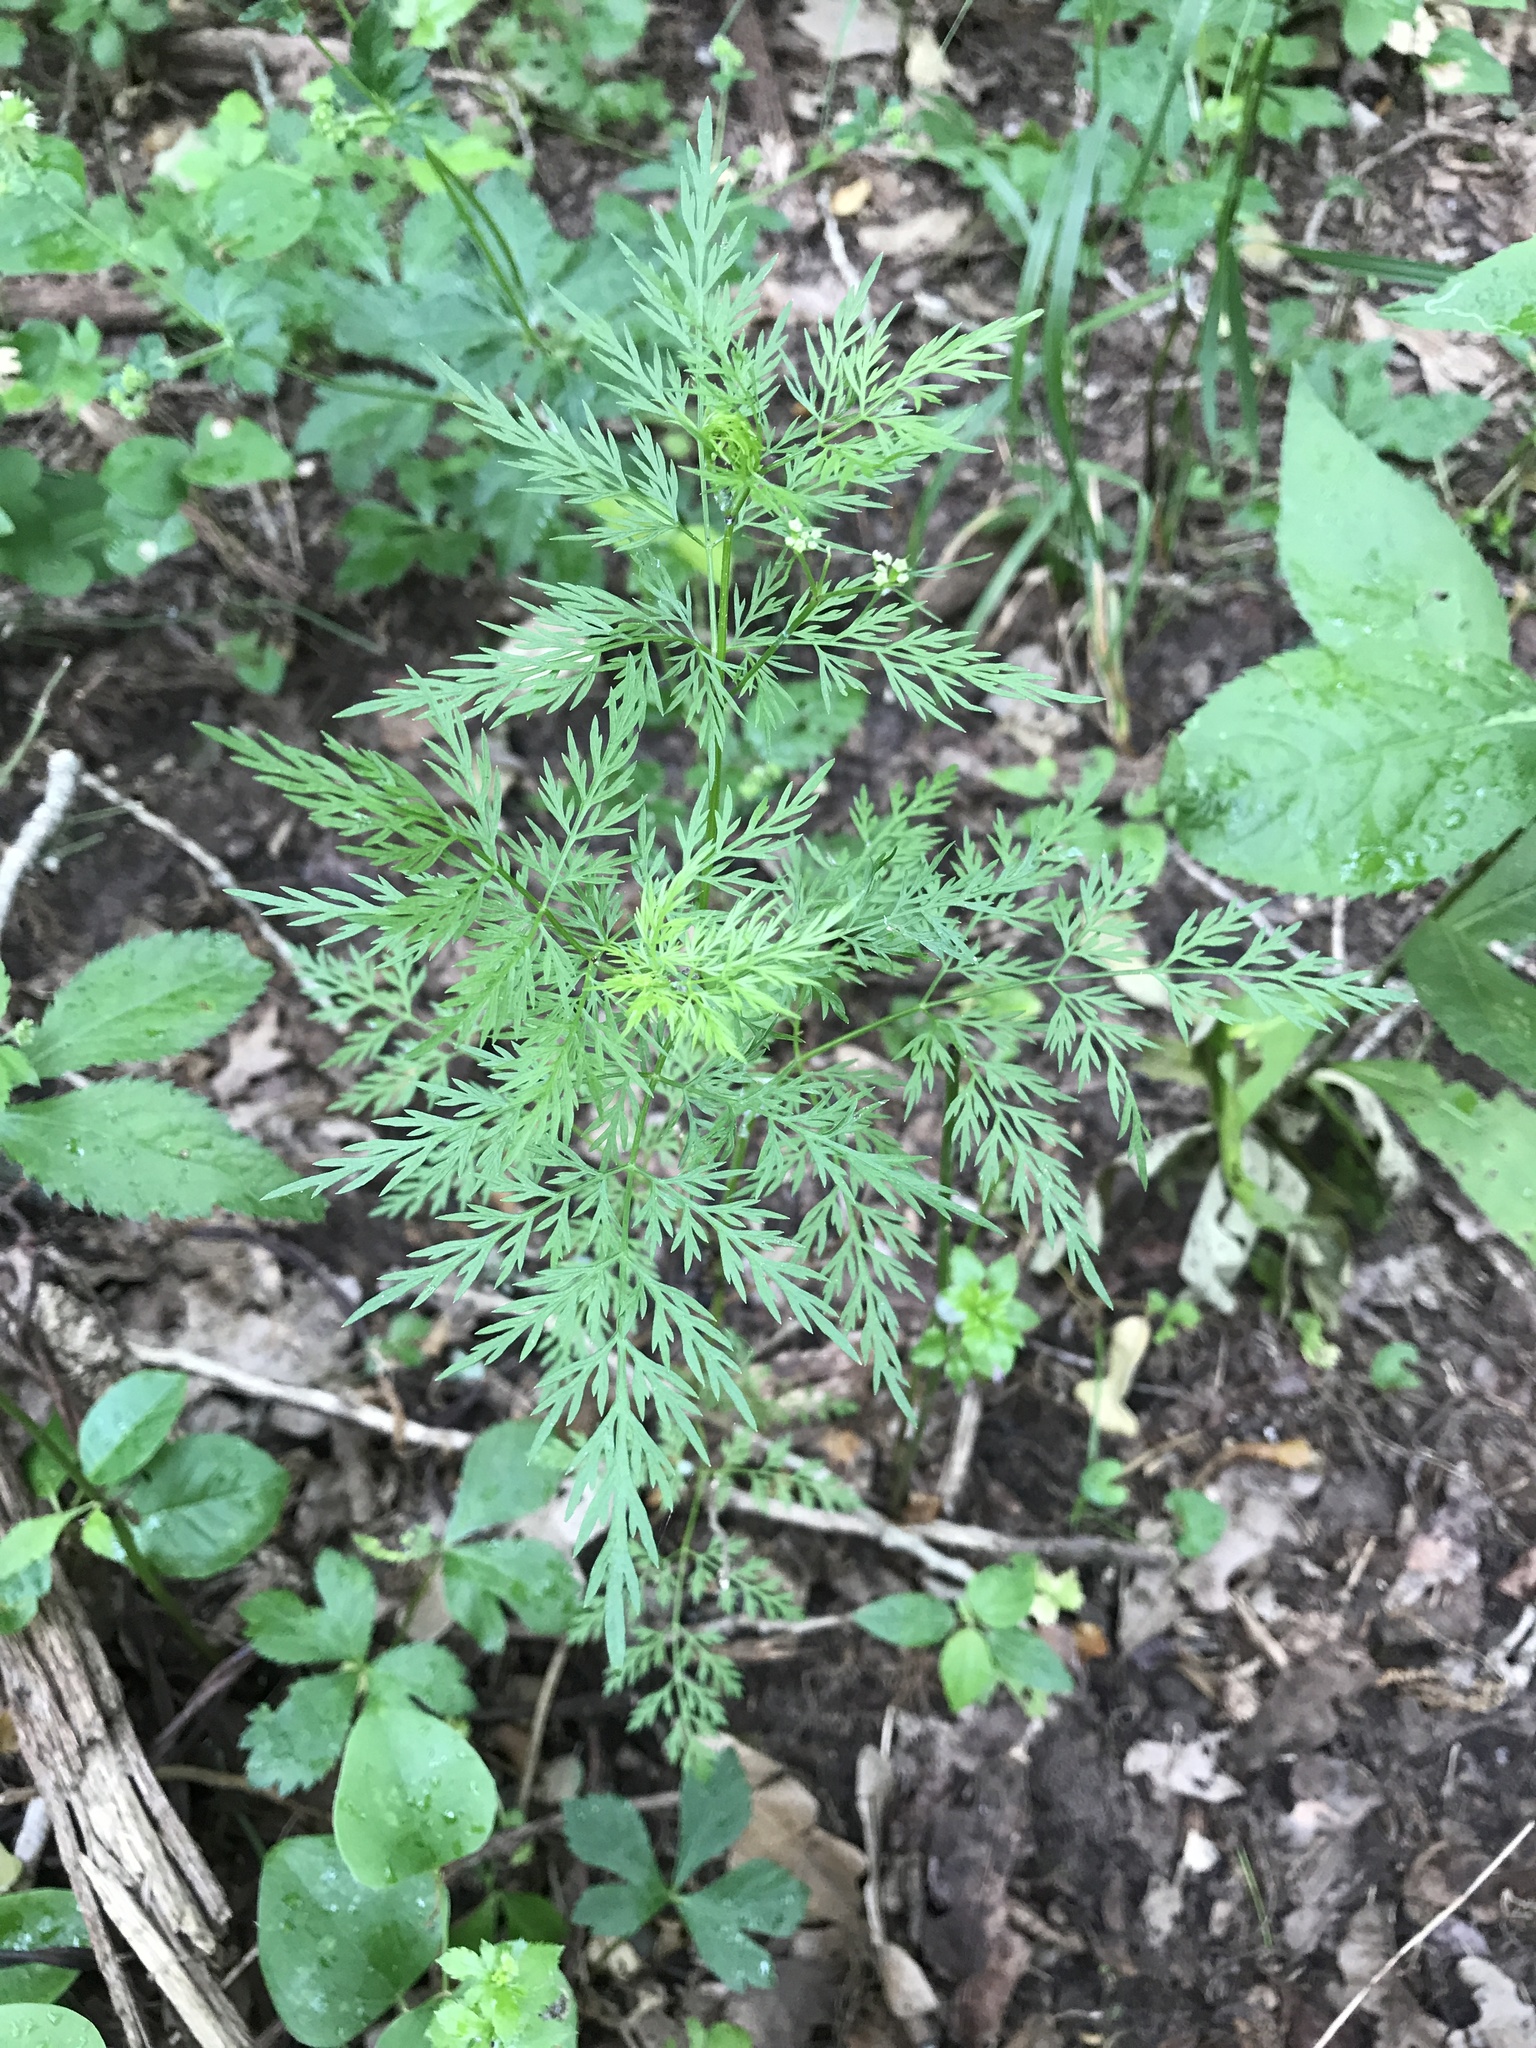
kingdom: Plantae
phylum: Tracheophyta
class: Magnoliopsida
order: Apiales
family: Apiaceae
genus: Trepocarpus
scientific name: Trepocarpus aethusae
